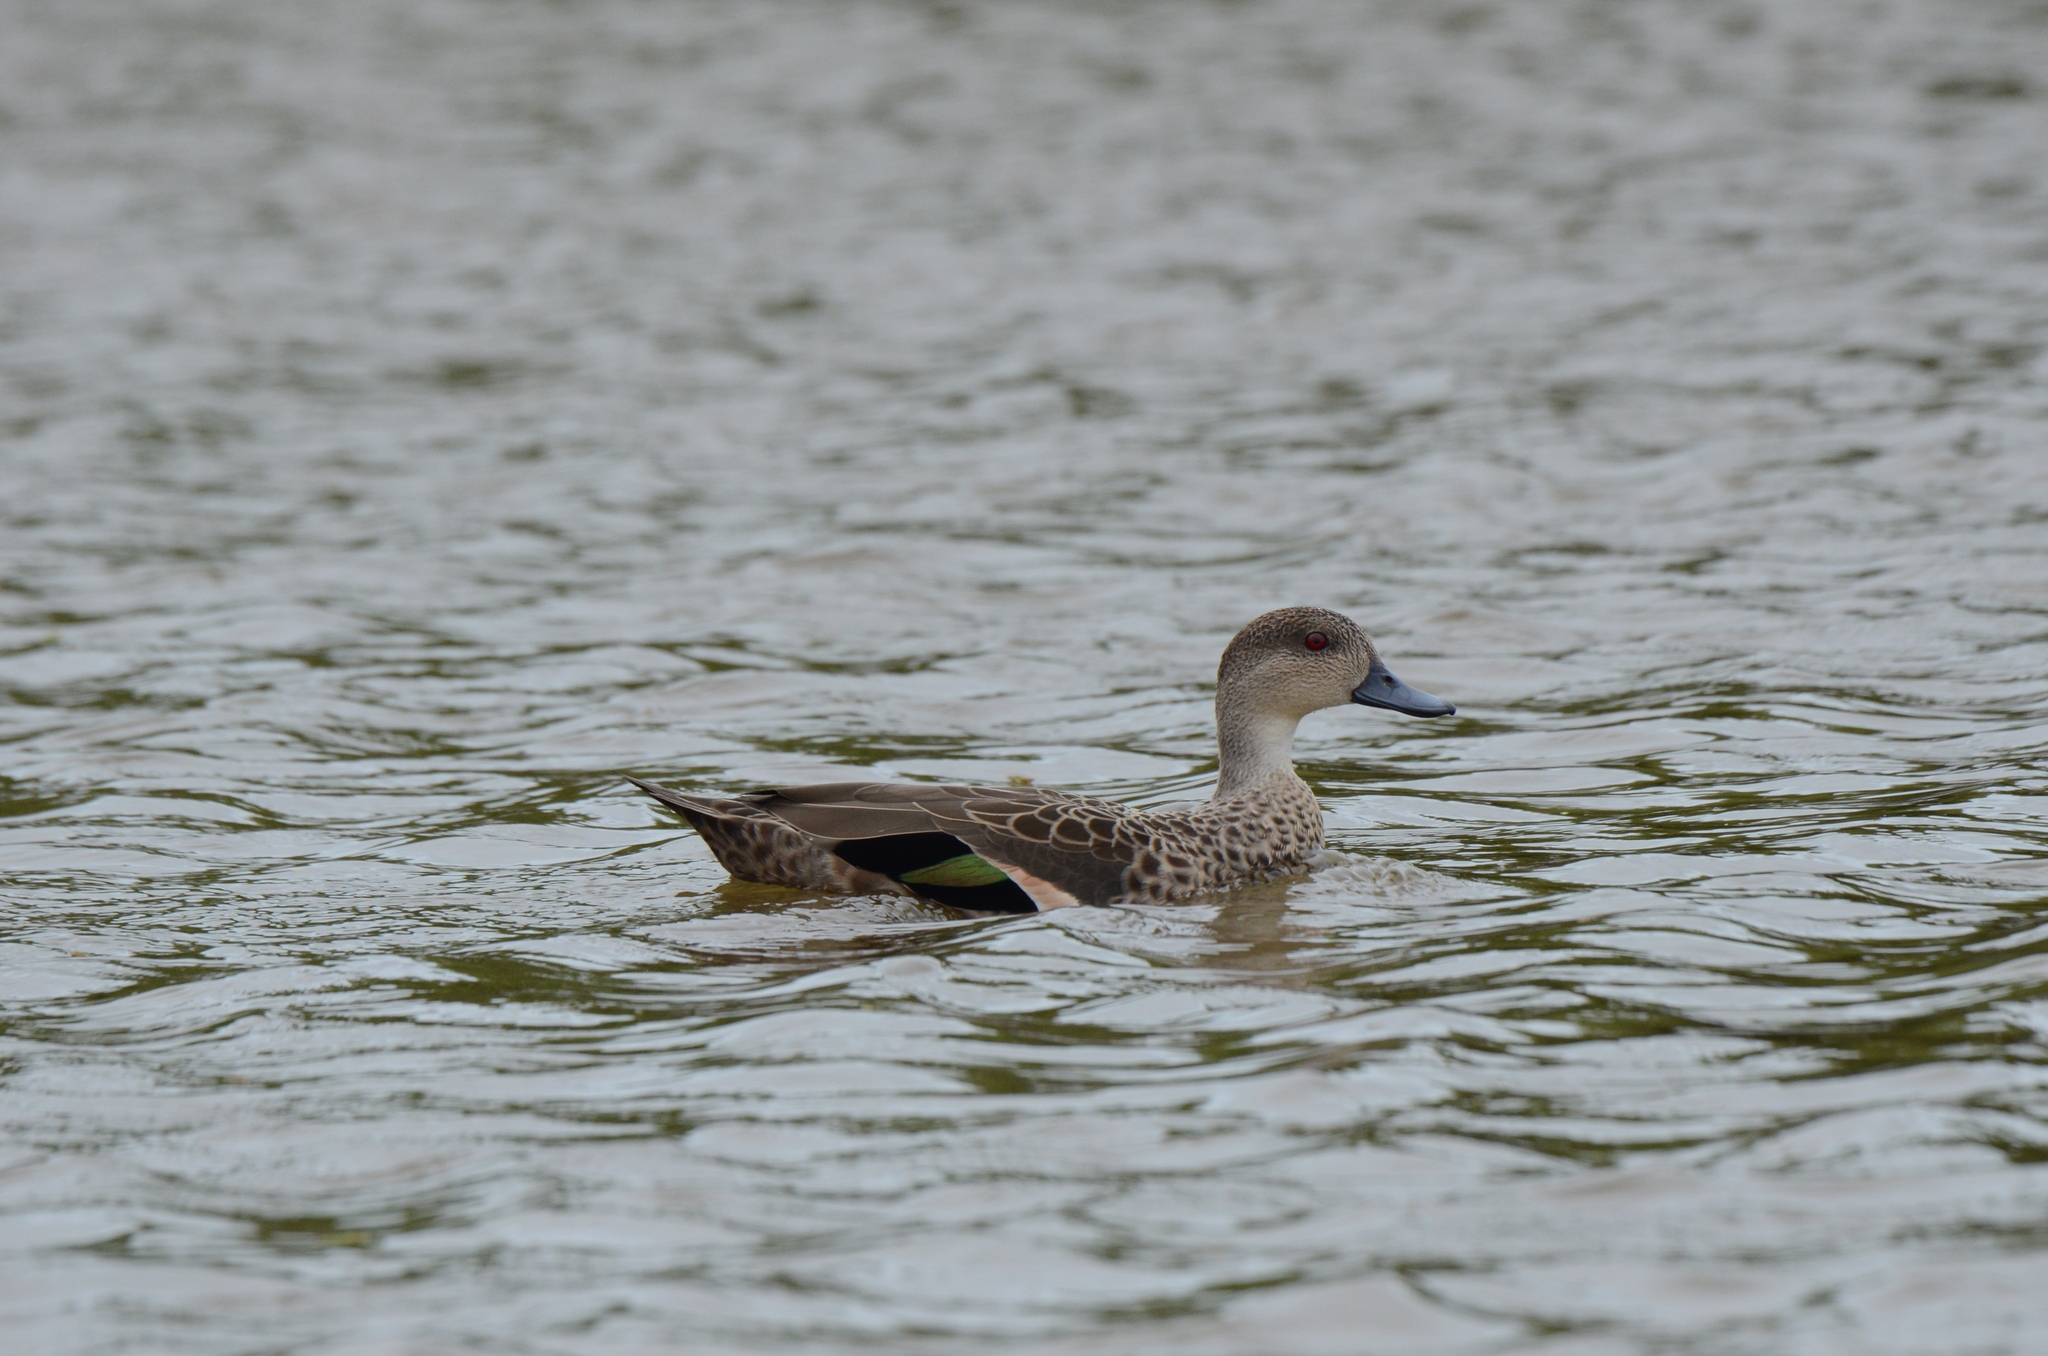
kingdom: Animalia
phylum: Chordata
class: Aves
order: Anseriformes
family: Anatidae
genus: Anas
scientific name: Anas gracilis
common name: Grey teal
